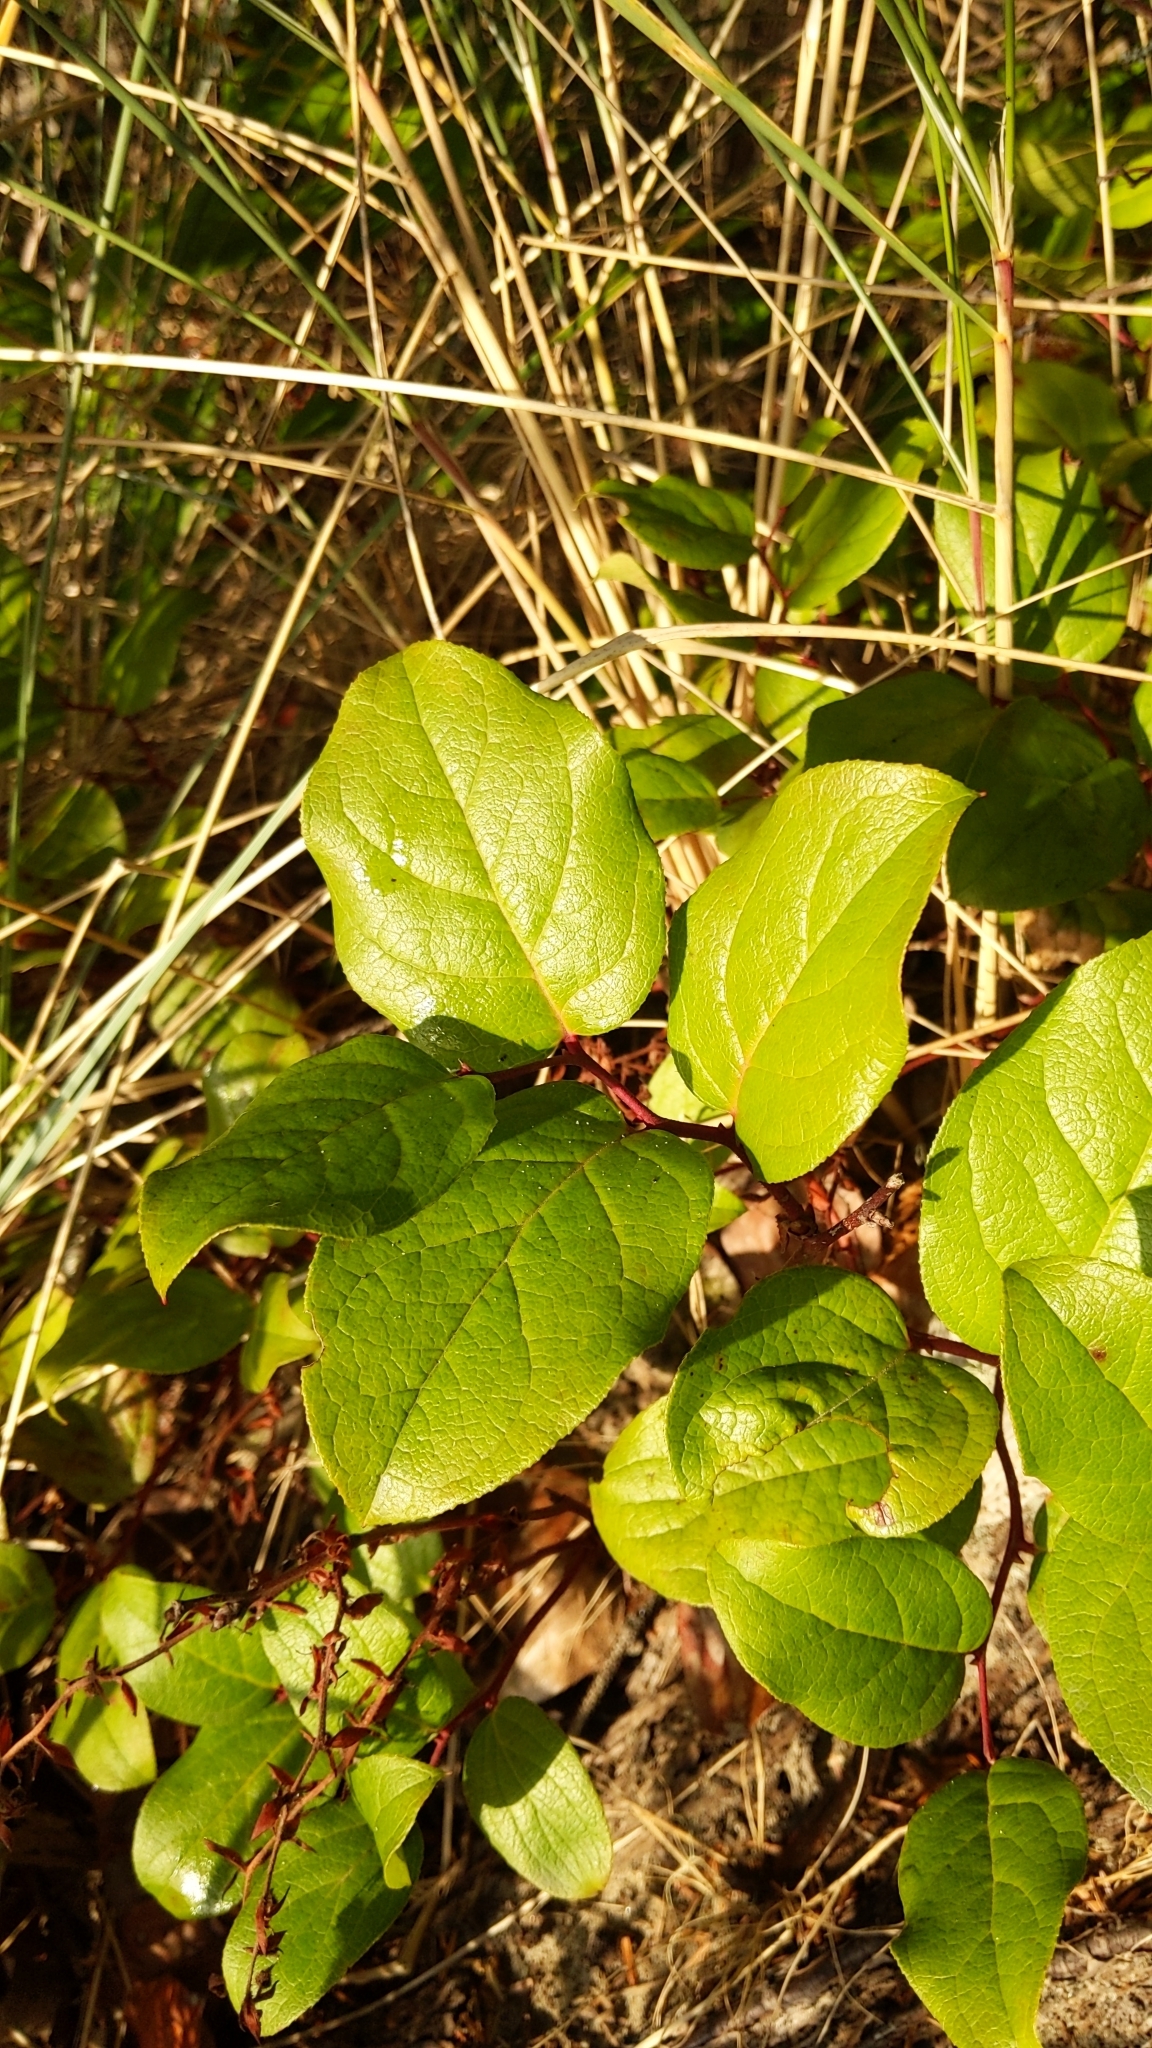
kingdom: Plantae
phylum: Tracheophyta
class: Magnoliopsida
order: Ericales
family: Ericaceae
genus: Gaultheria
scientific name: Gaultheria shallon
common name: Shallon
